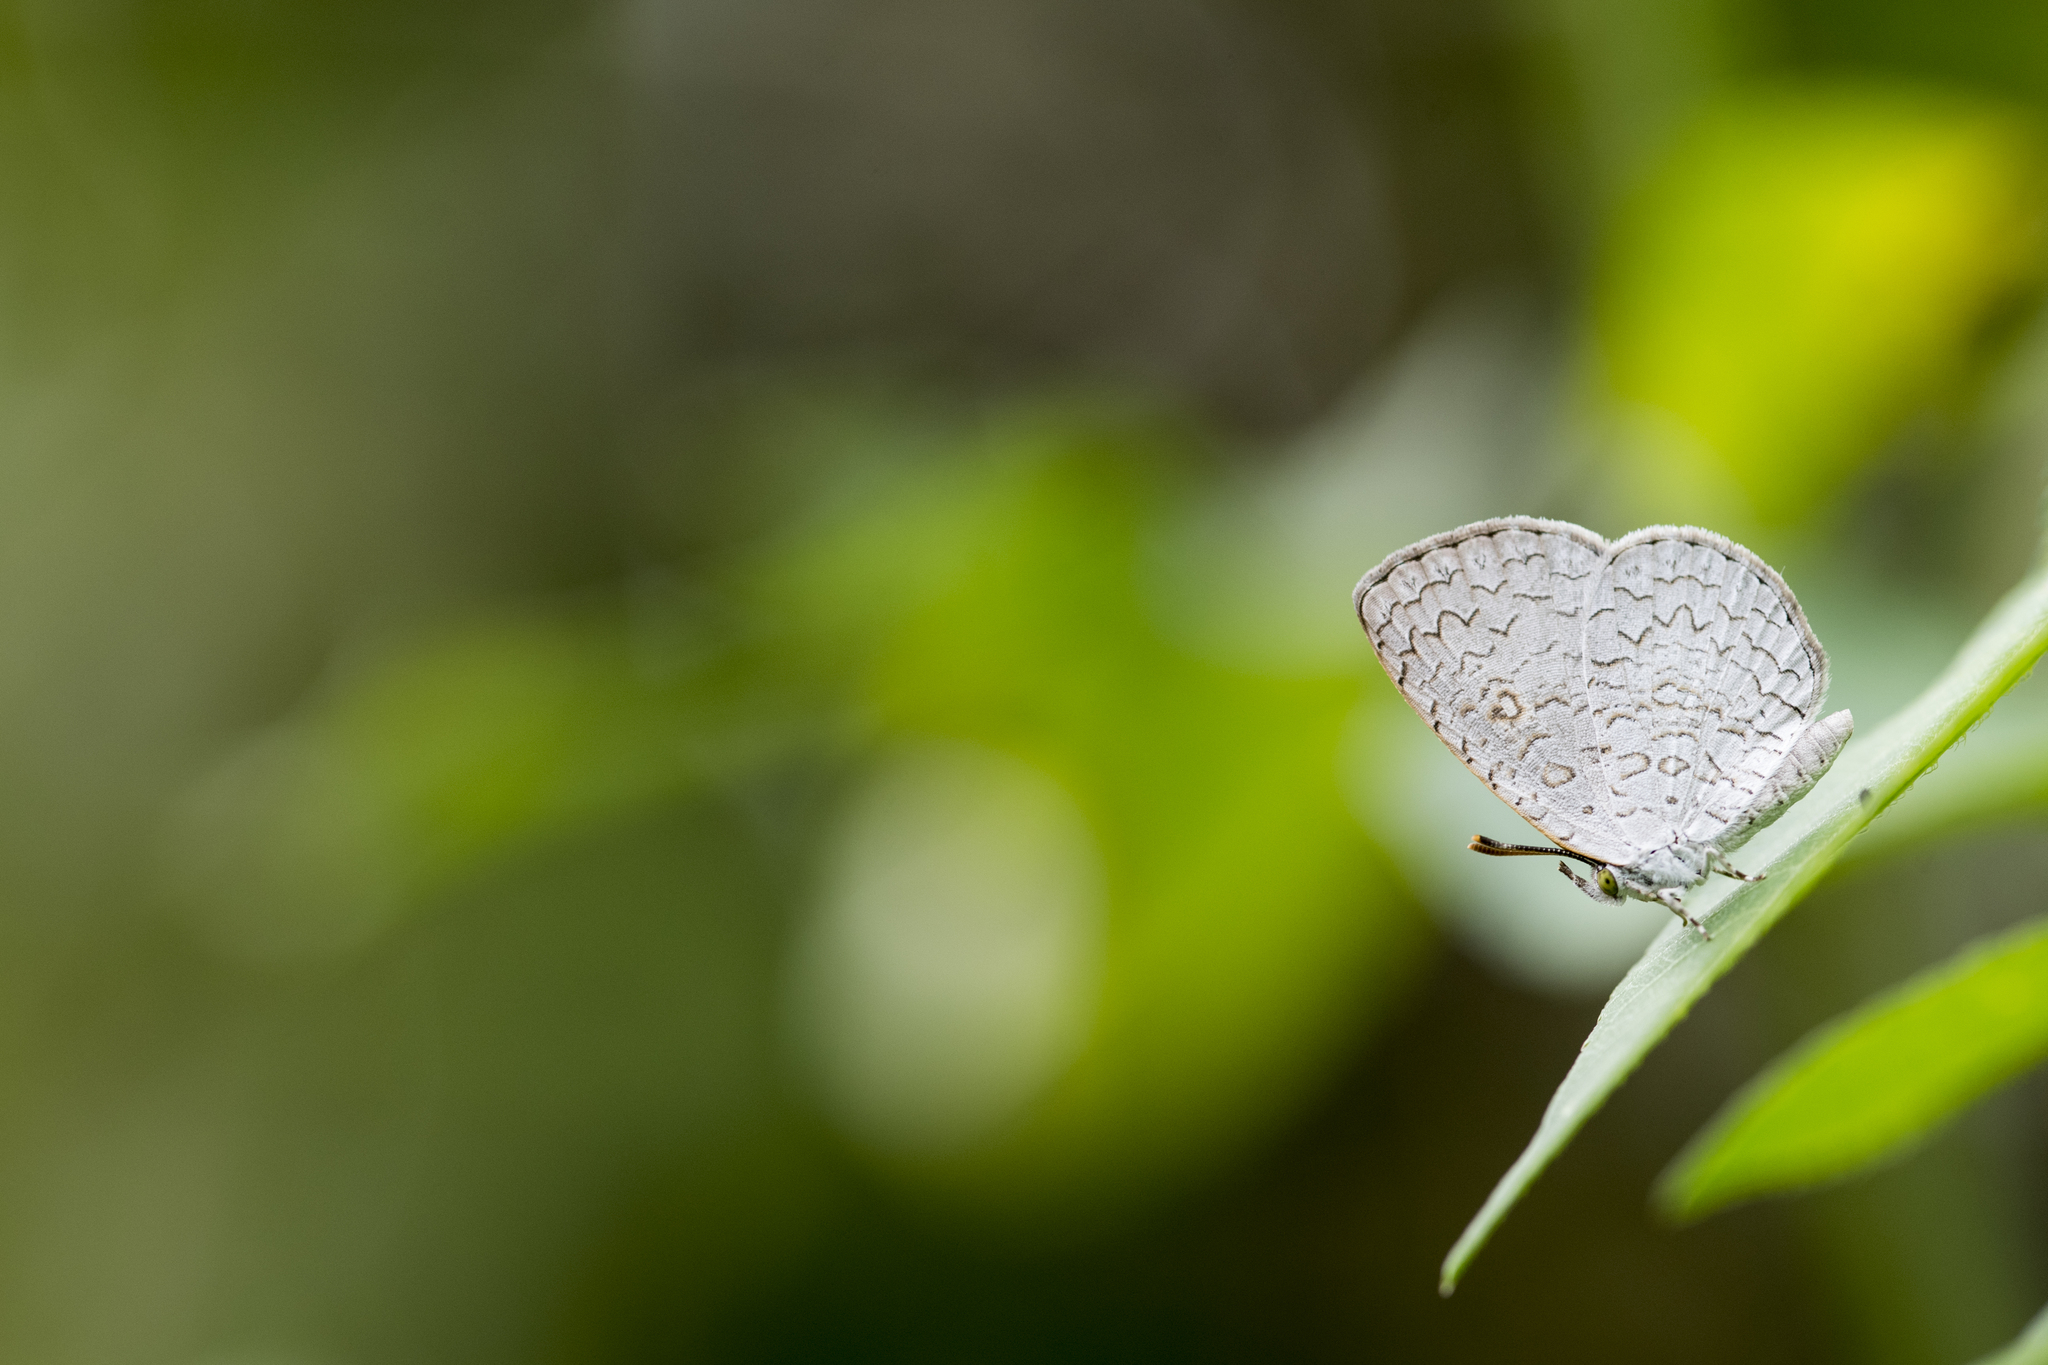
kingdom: Animalia
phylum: Arthropoda
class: Insecta
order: Lepidoptera
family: Lycaenidae
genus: Lucia
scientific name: Lucia dilama
